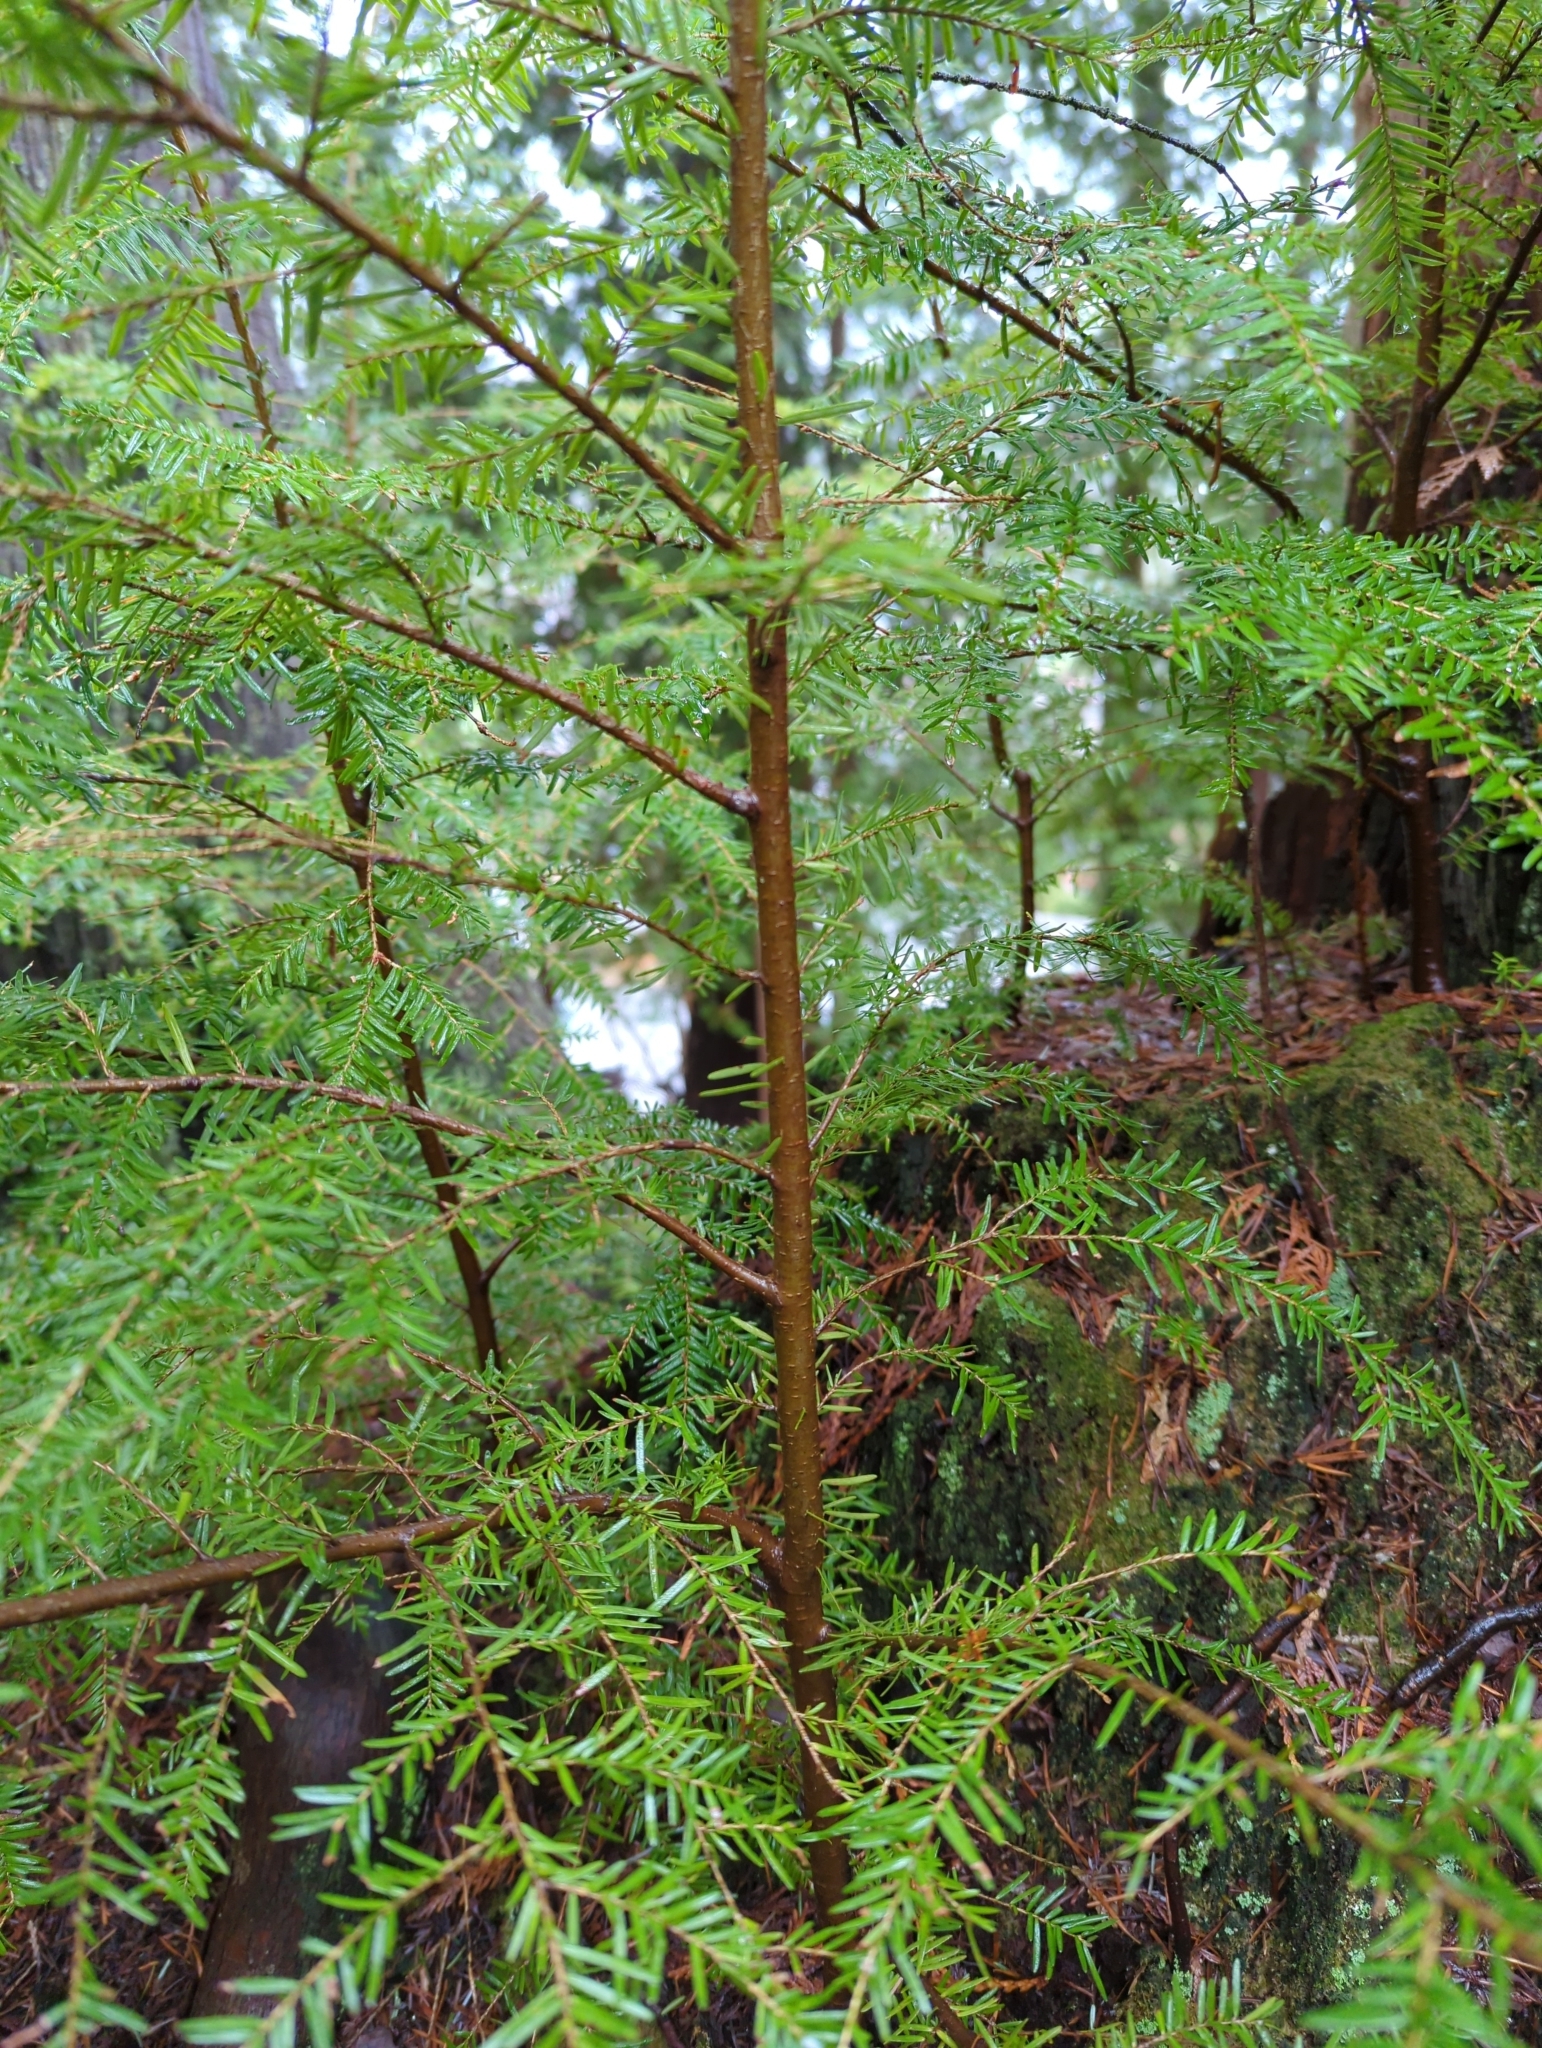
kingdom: Plantae
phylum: Tracheophyta
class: Pinopsida
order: Pinales
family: Pinaceae
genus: Tsuga
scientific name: Tsuga heterophylla
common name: Western hemlock
